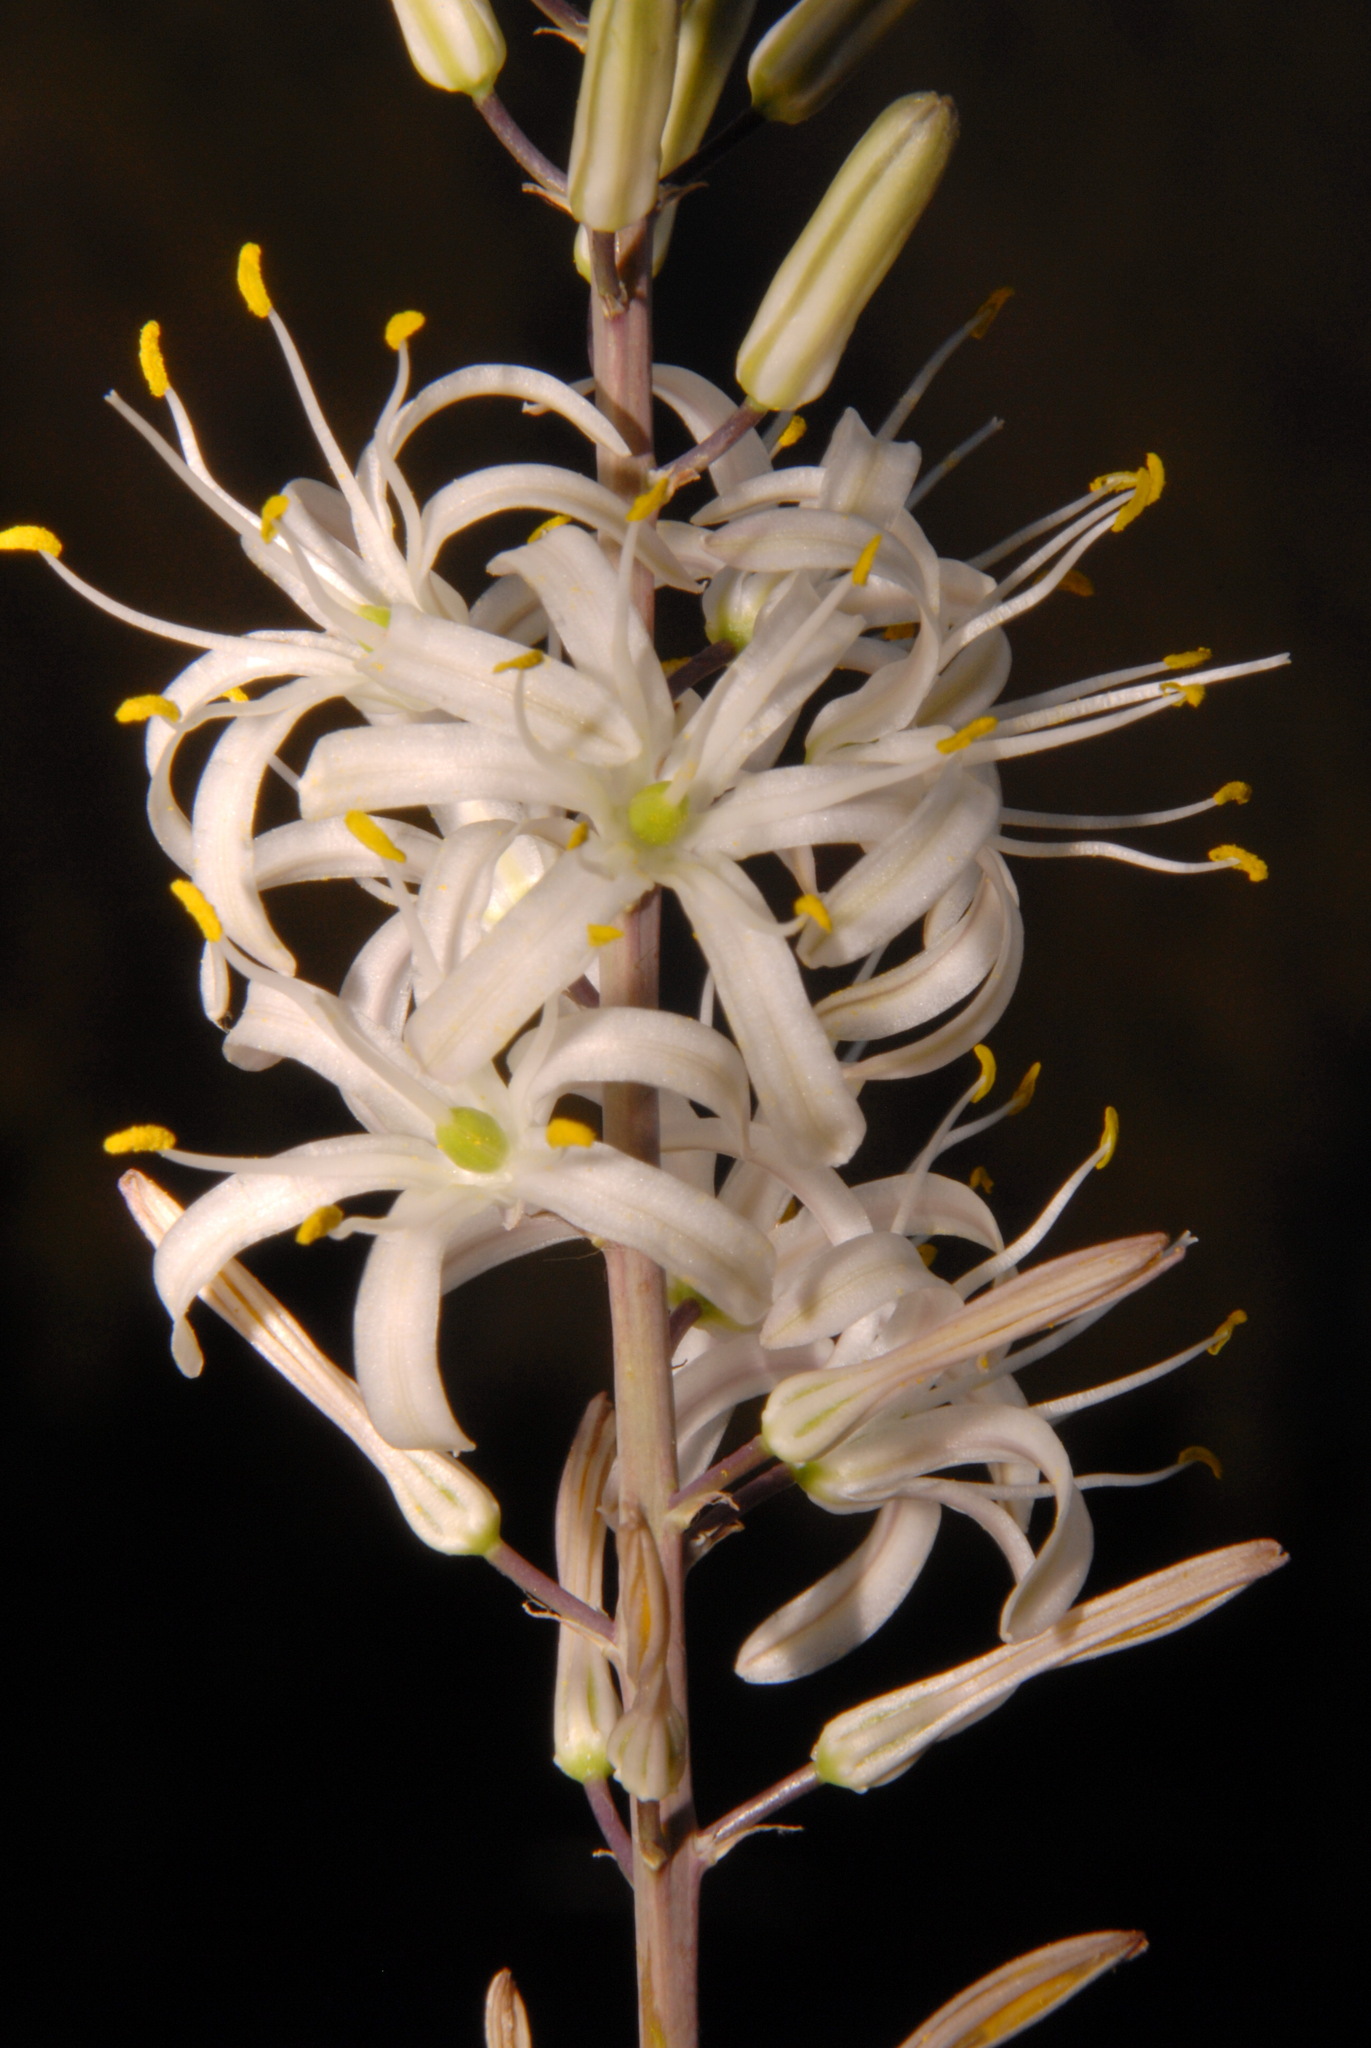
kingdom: Plantae
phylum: Tracheophyta
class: Liliopsida
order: Asparagales
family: Asparagaceae
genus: Chlorogalum
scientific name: Chlorogalum pomeridianum
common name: Amole
